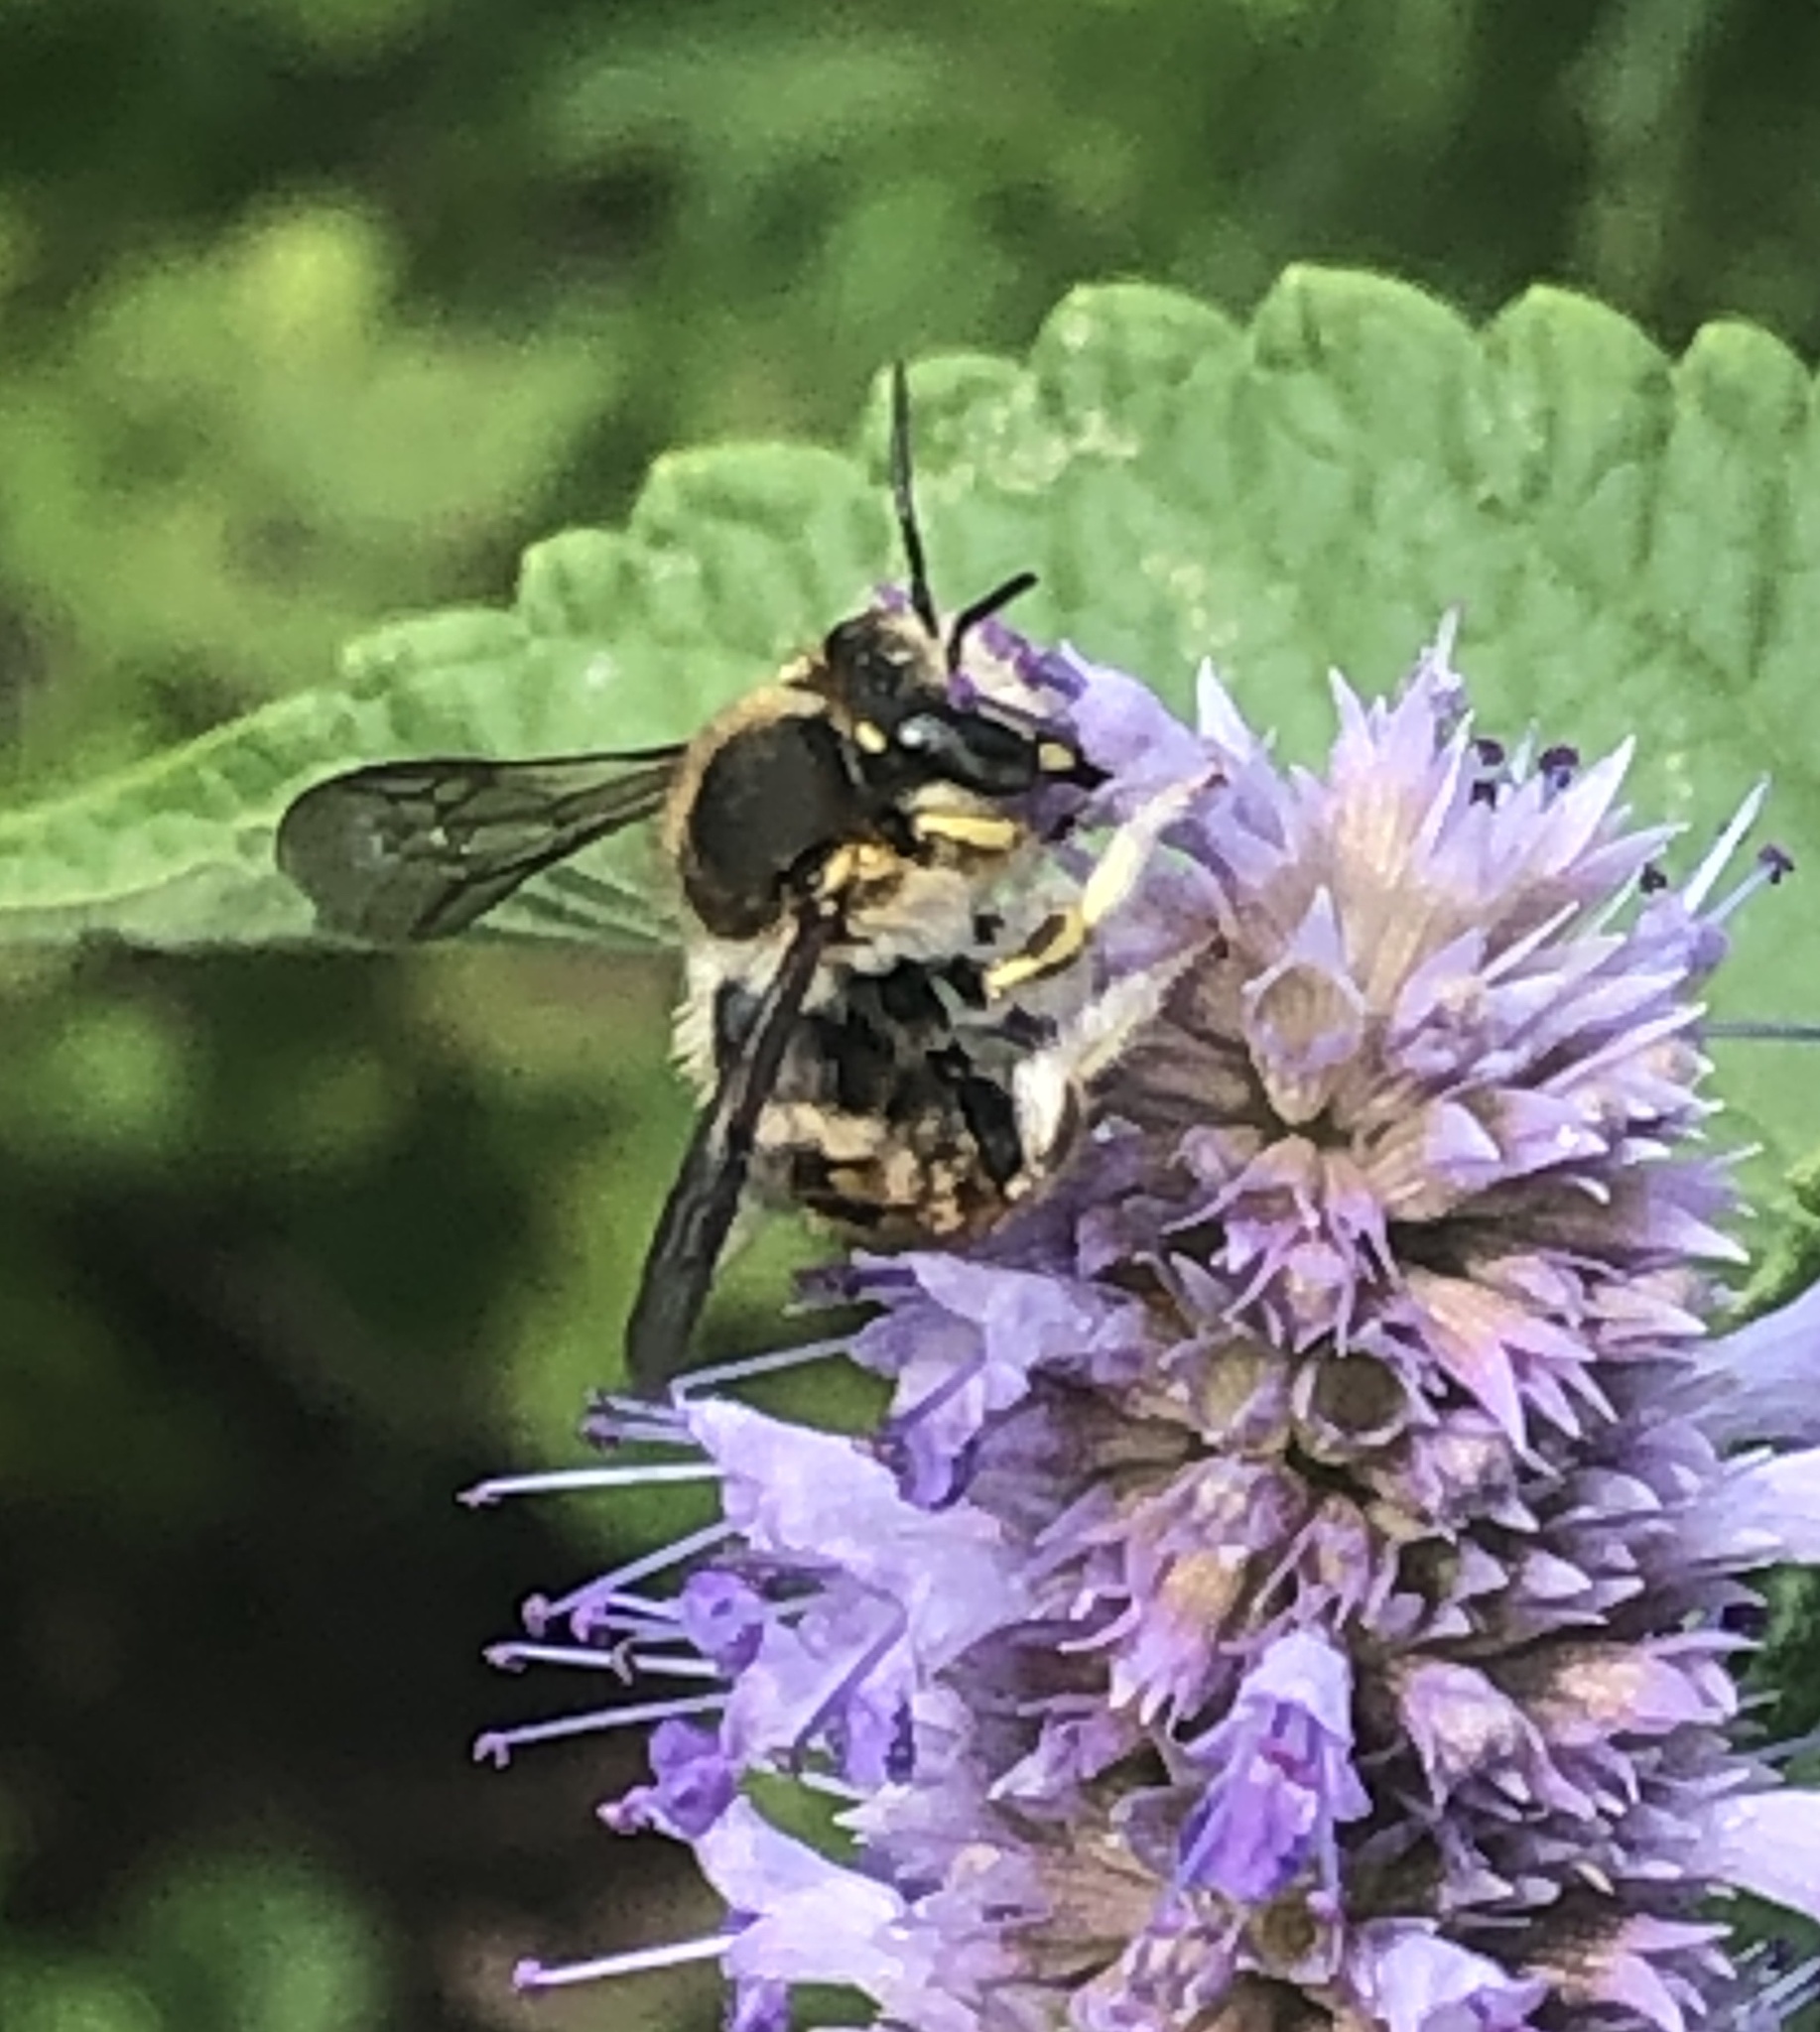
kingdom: Animalia
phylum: Arthropoda
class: Insecta
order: Hymenoptera
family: Megachilidae
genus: Anthidium
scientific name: Anthidium manicatum
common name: Wool carder bee
